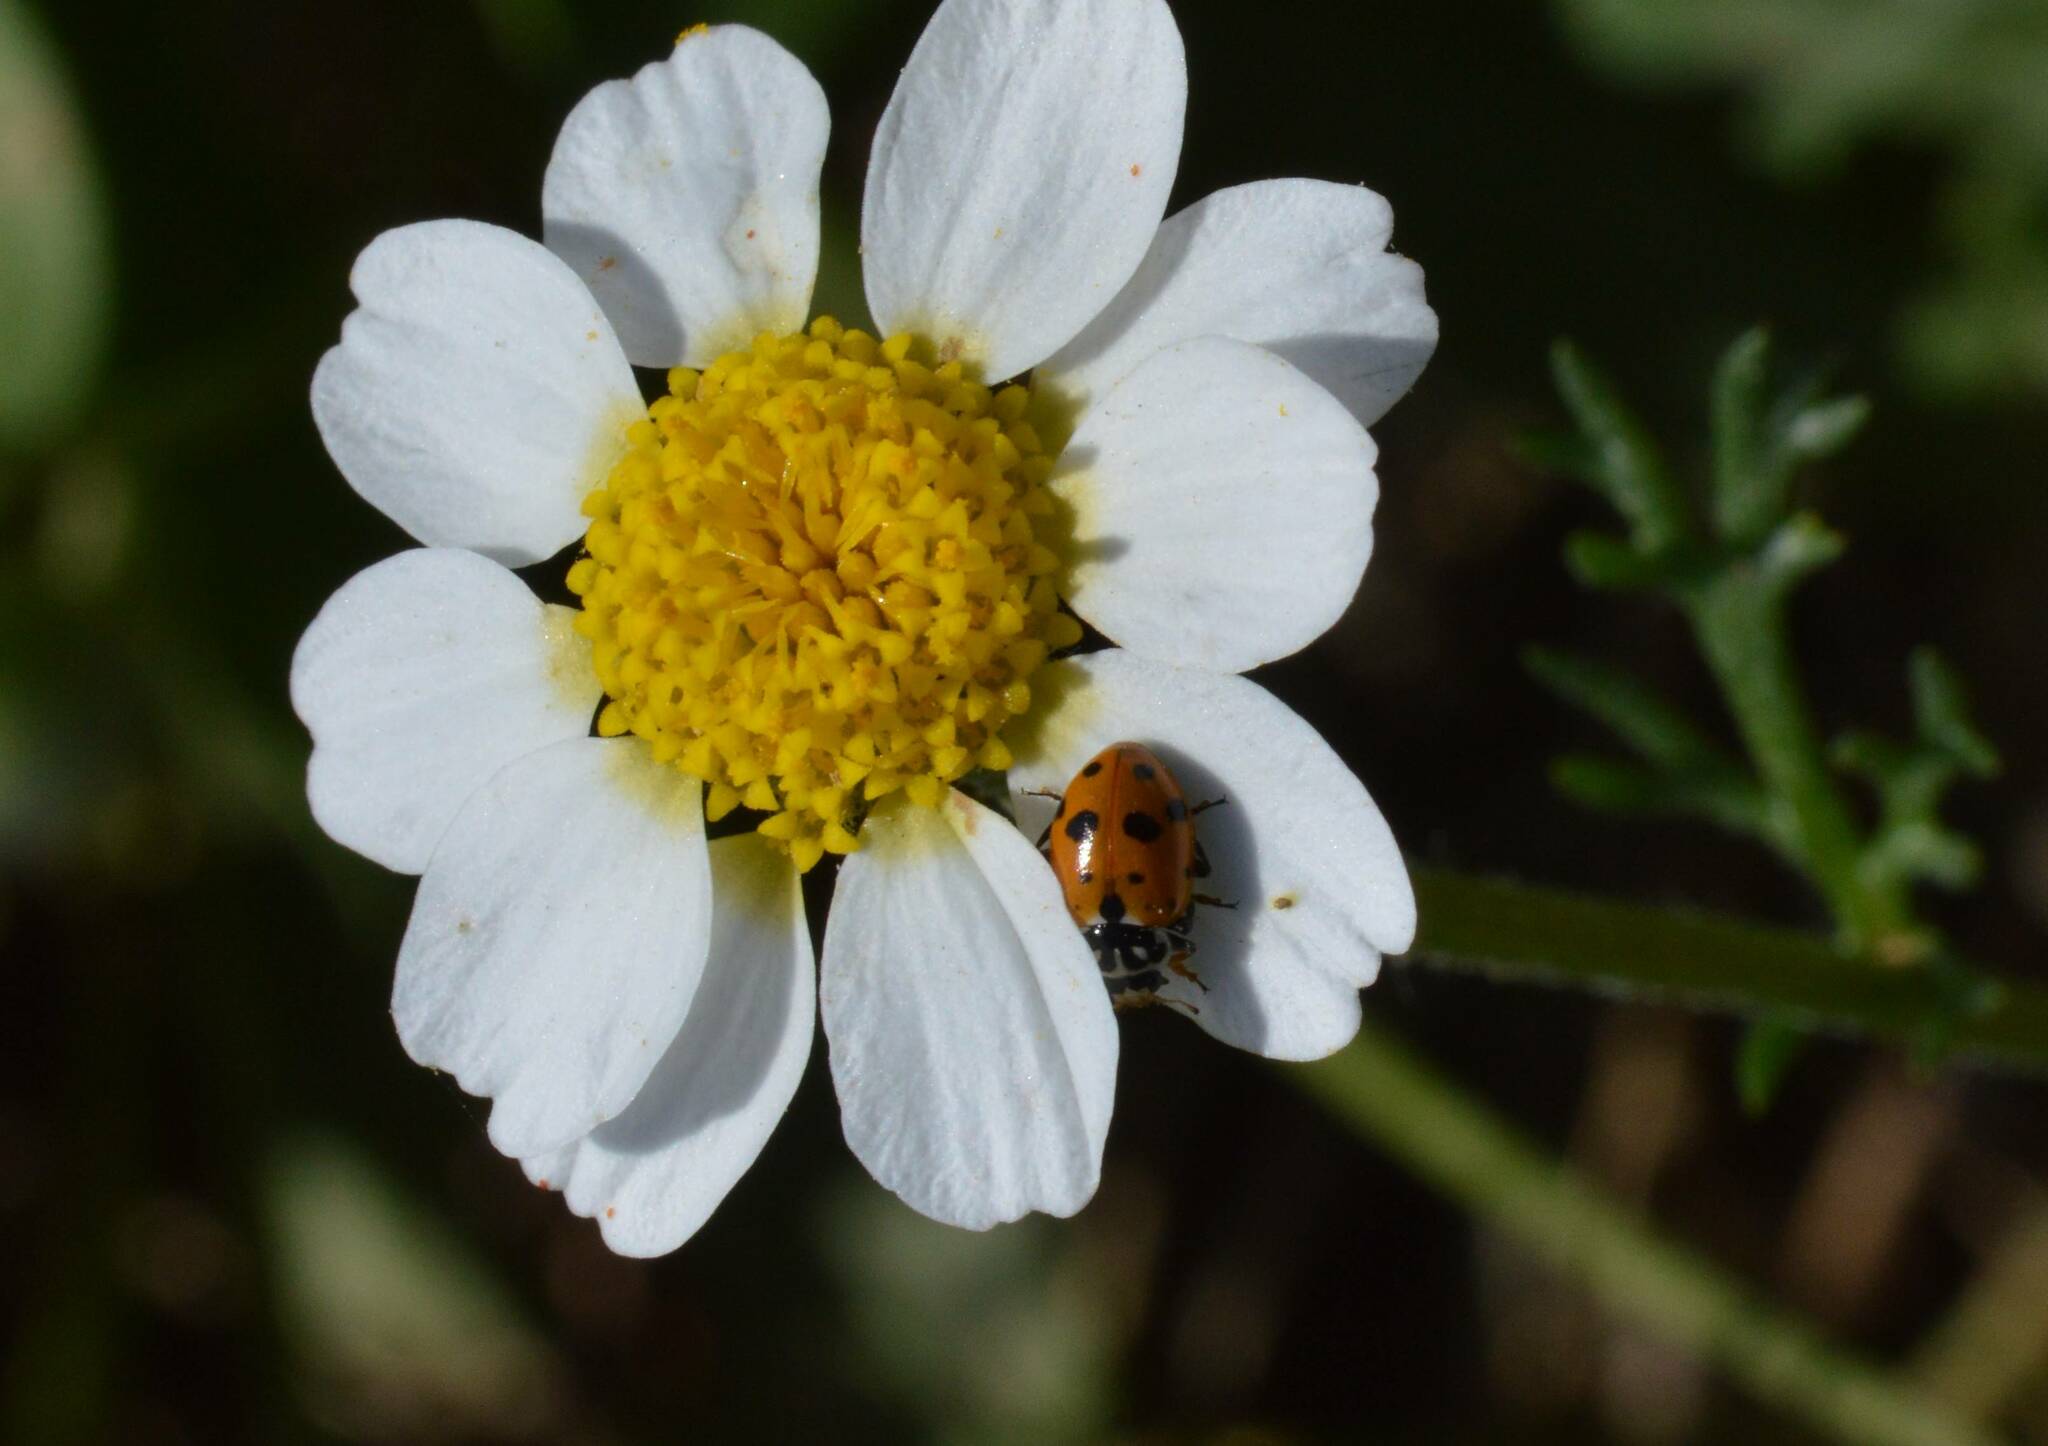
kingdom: Animalia
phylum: Arthropoda
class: Insecta
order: Coleoptera
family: Coccinellidae
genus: Hippodamia
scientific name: Hippodamia variegata
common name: Ladybird beetle
